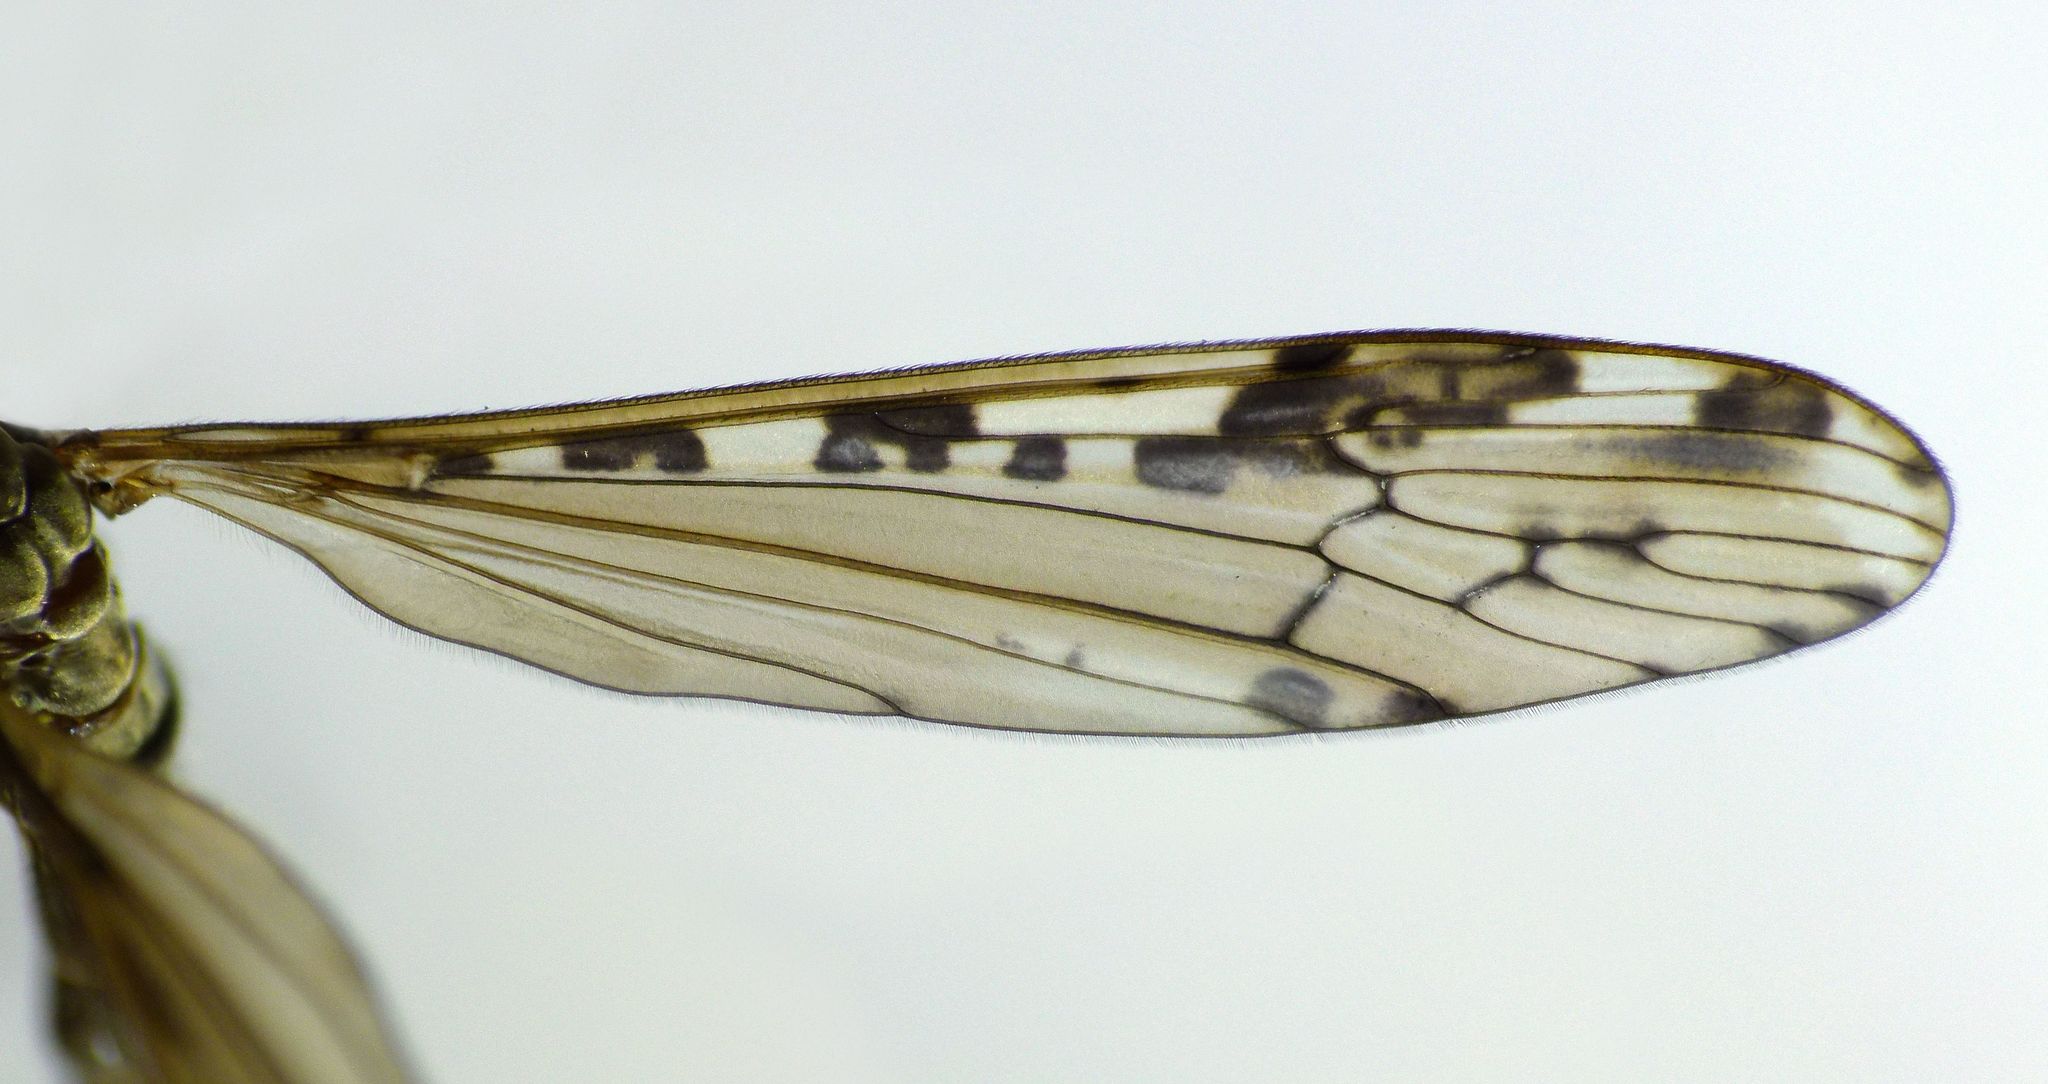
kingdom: Animalia
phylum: Arthropoda
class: Insecta
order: Diptera
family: Limoniidae
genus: Paralimnophila
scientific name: Paralimnophila skusei
